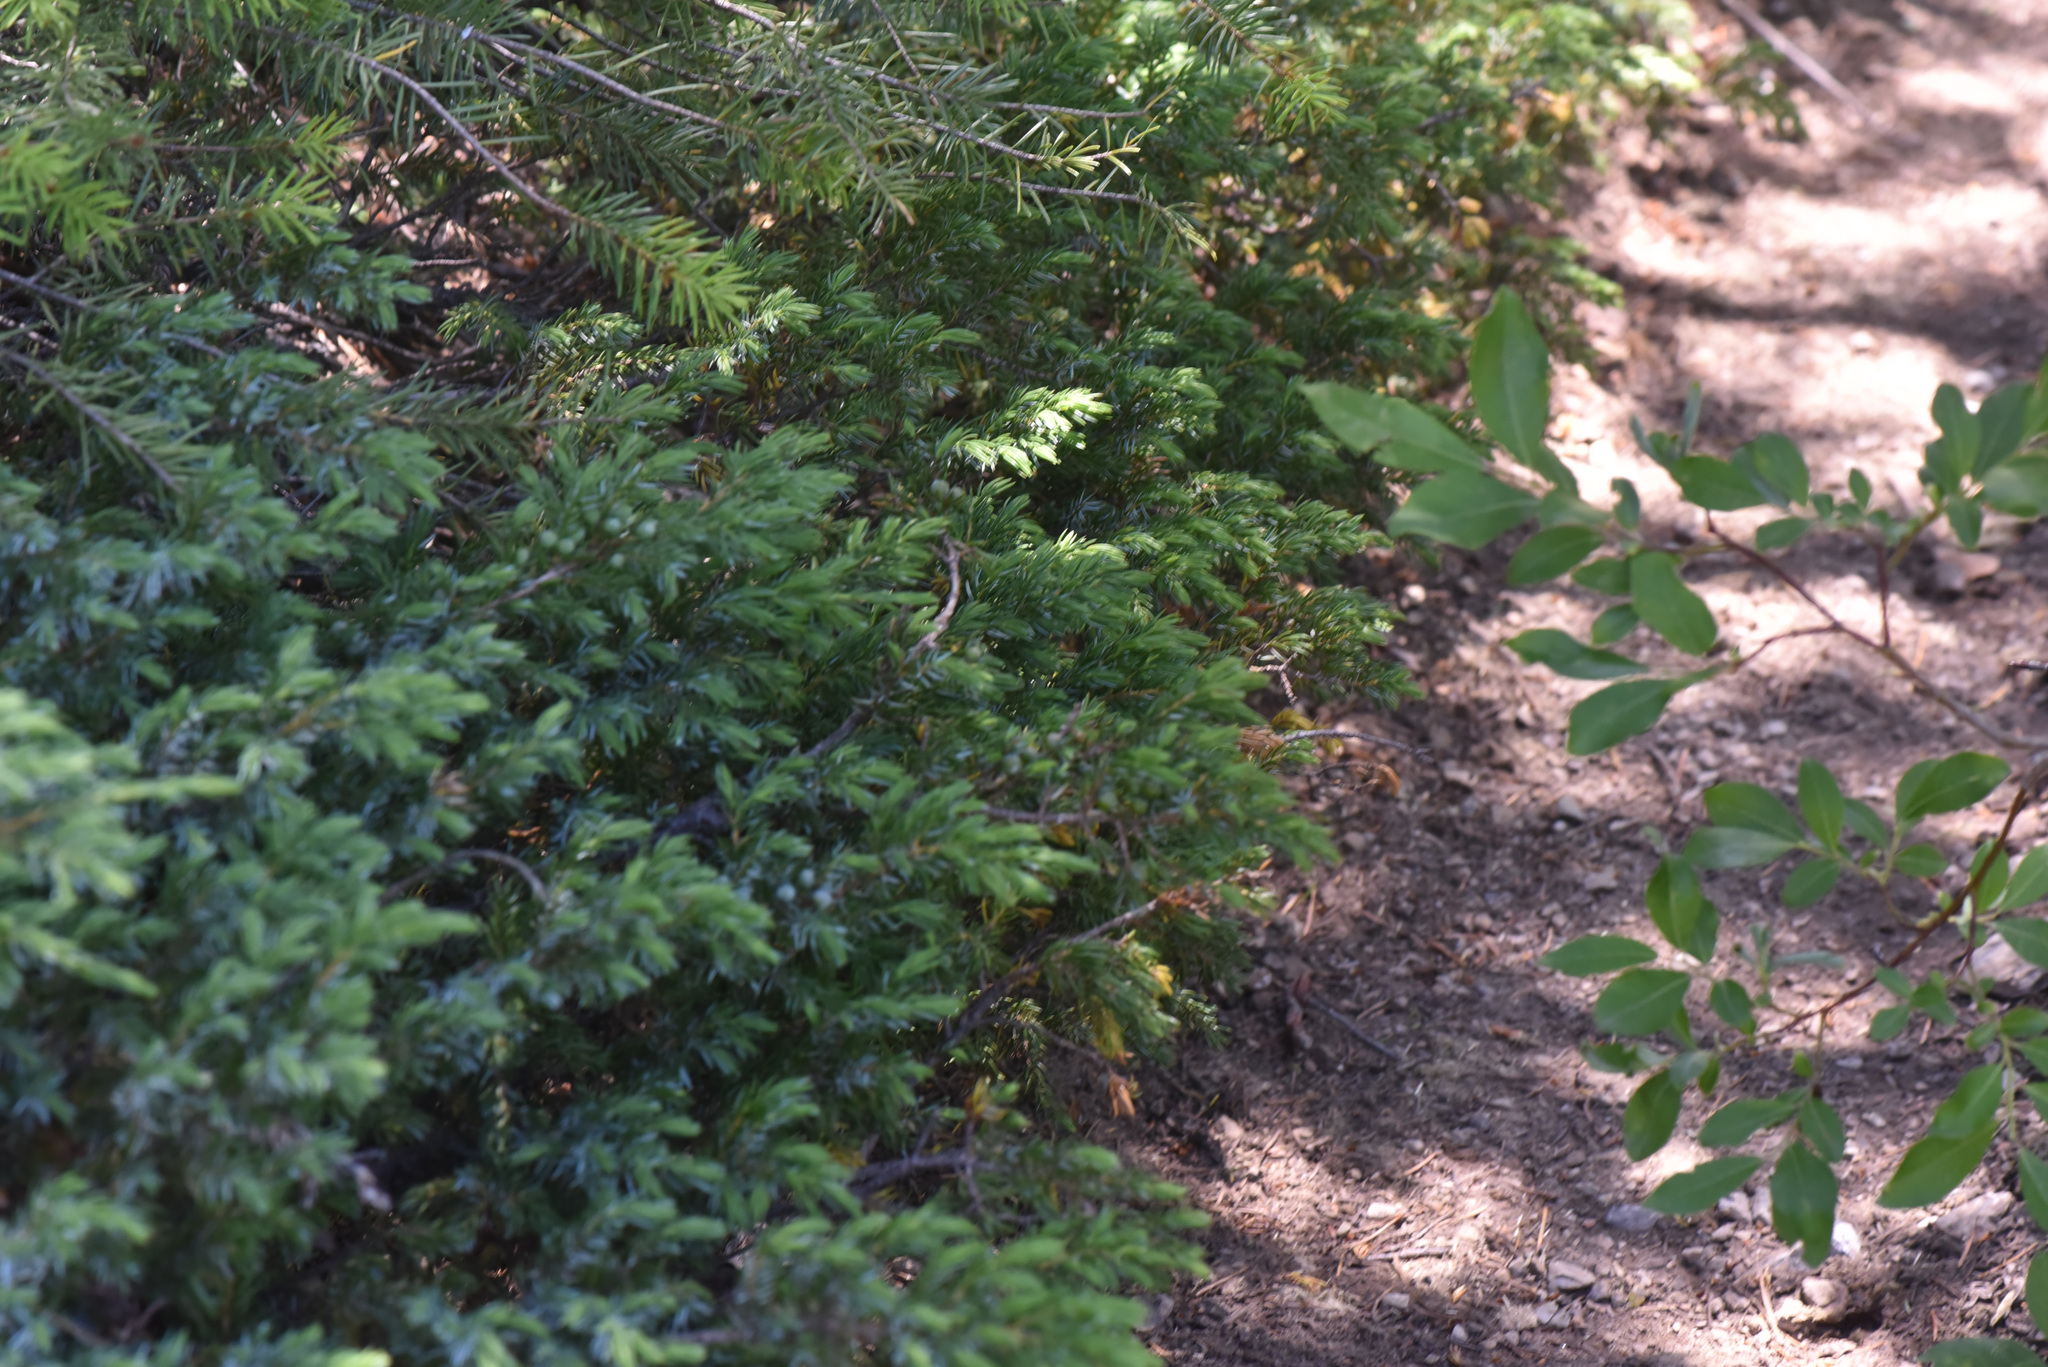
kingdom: Plantae
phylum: Tracheophyta
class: Pinopsida
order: Pinales
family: Cupressaceae
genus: Juniperus
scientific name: Juniperus communis
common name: Common juniper
